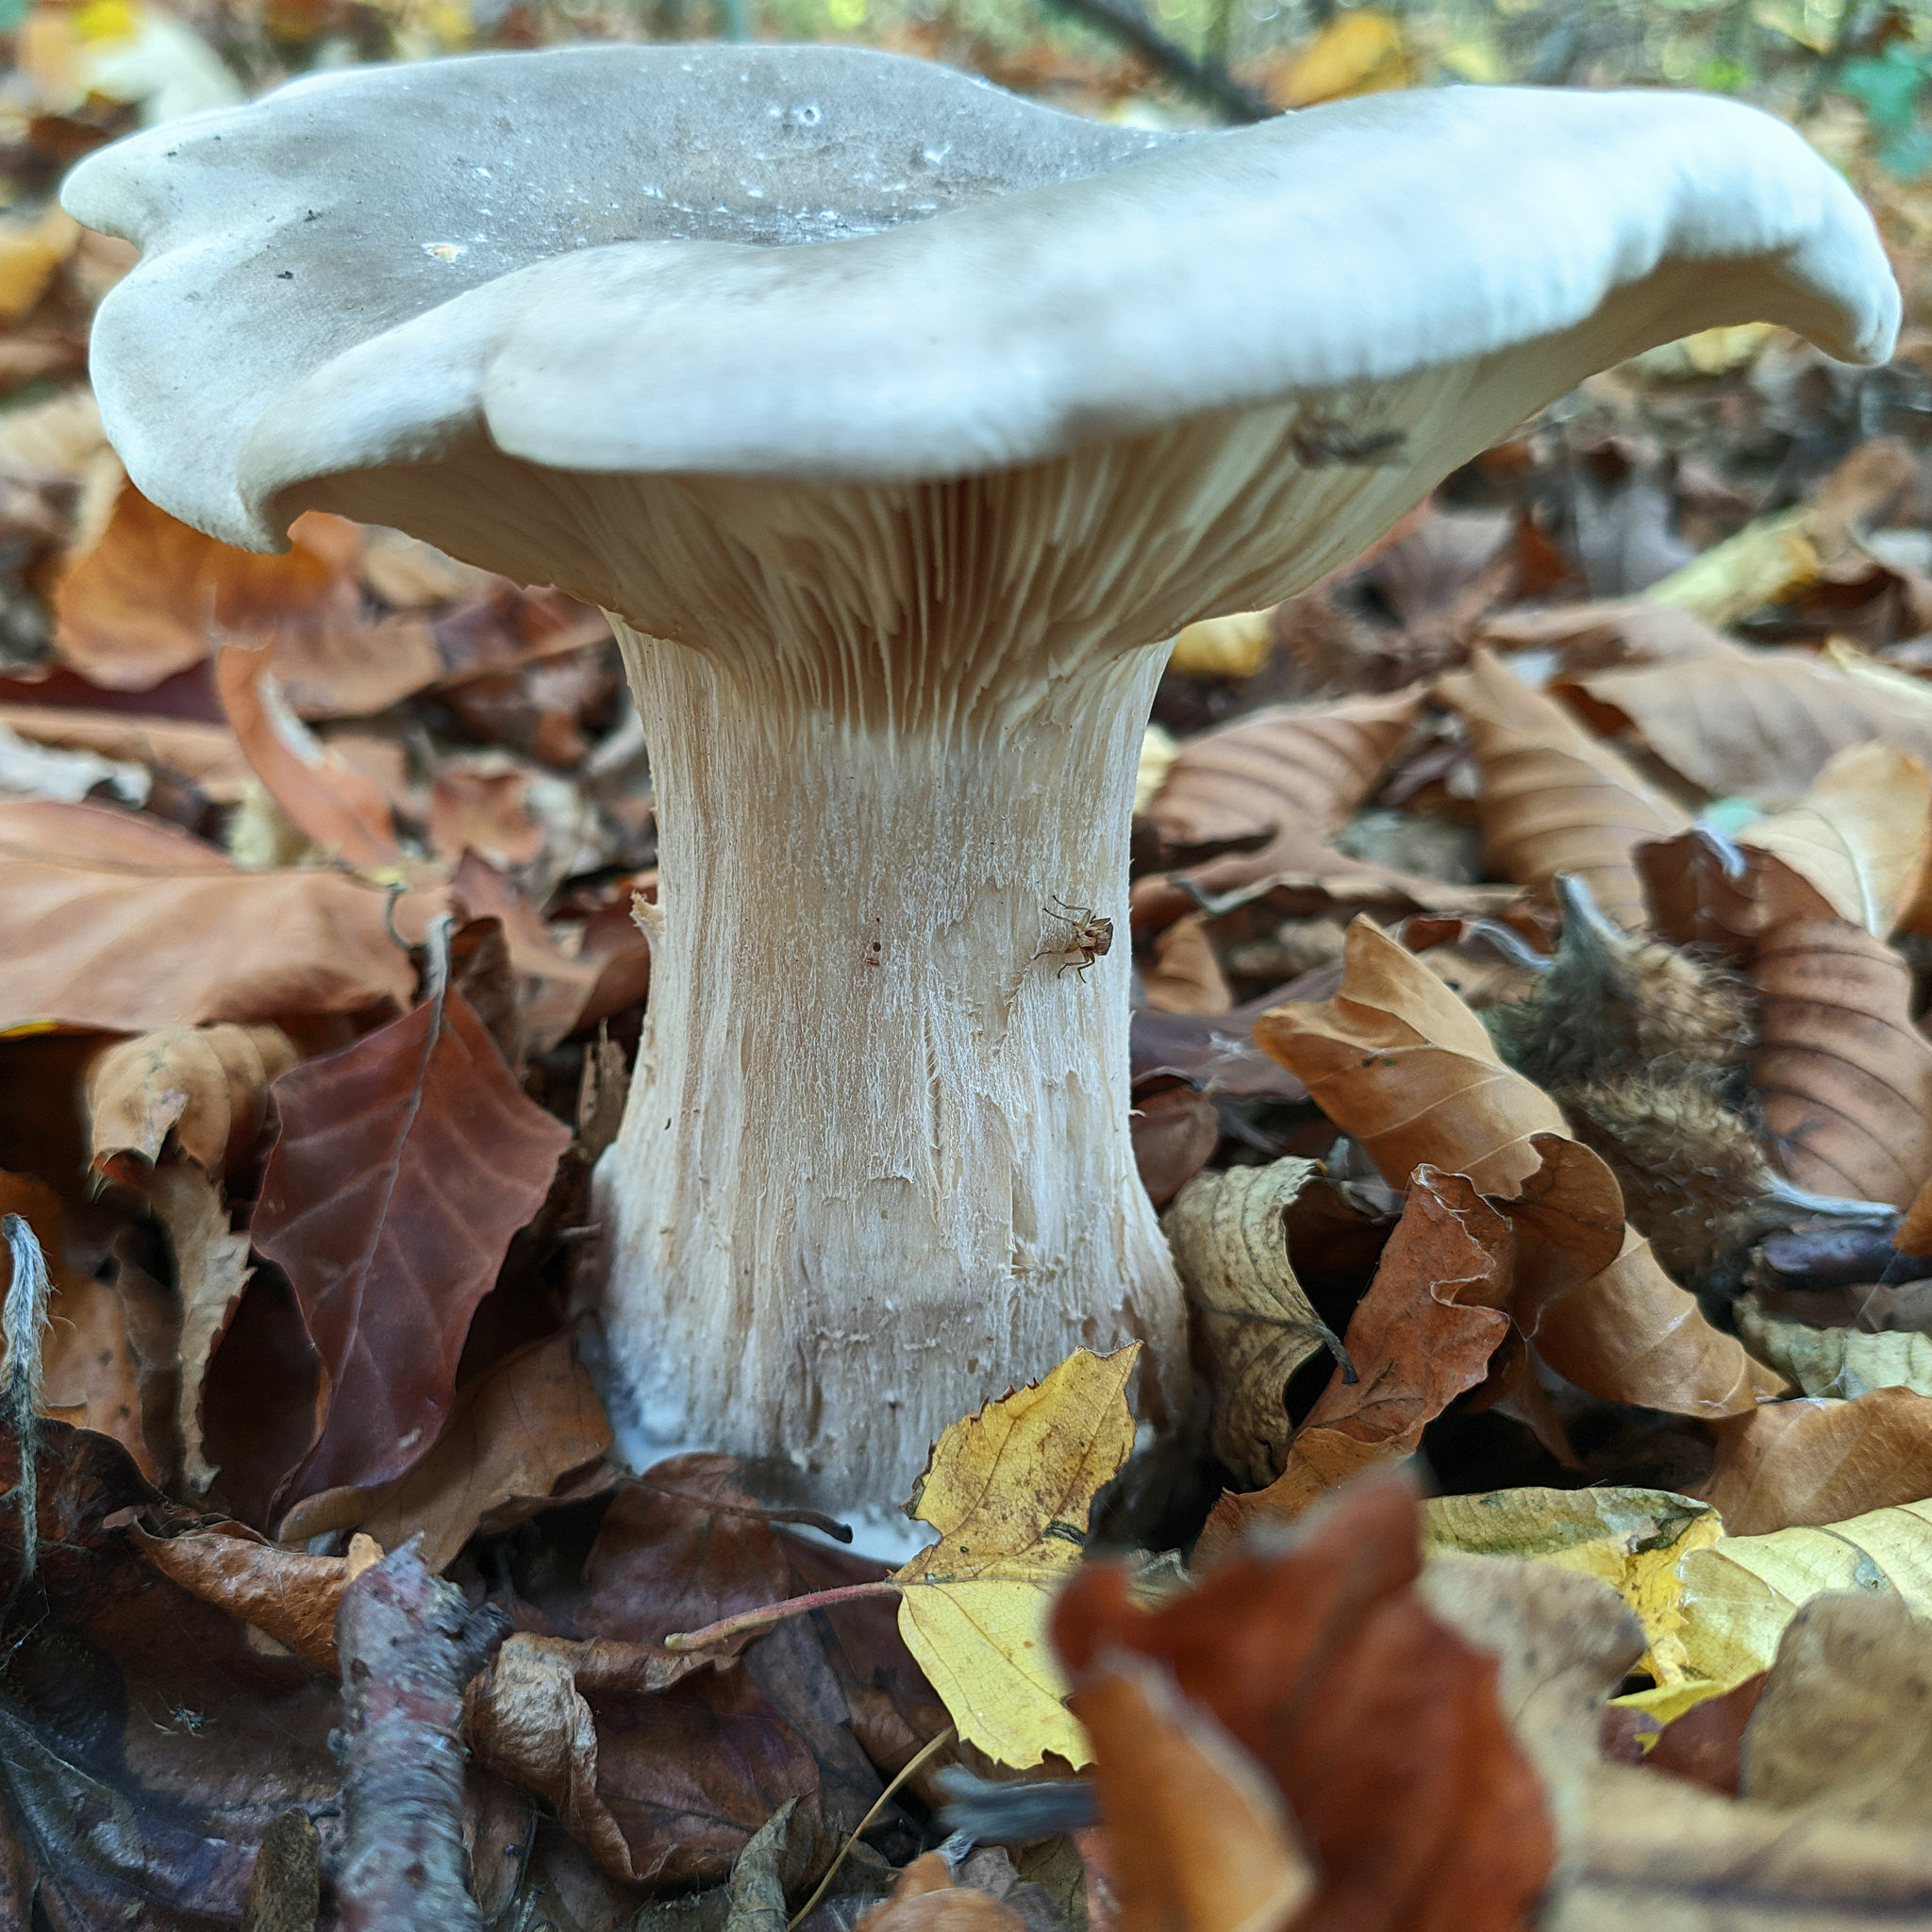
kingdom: Fungi
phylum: Basidiomycota
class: Agaricomycetes
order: Agaricales
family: Tricholomataceae
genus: Clitocybe
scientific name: Clitocybe nebularis
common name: Clouded agaric
